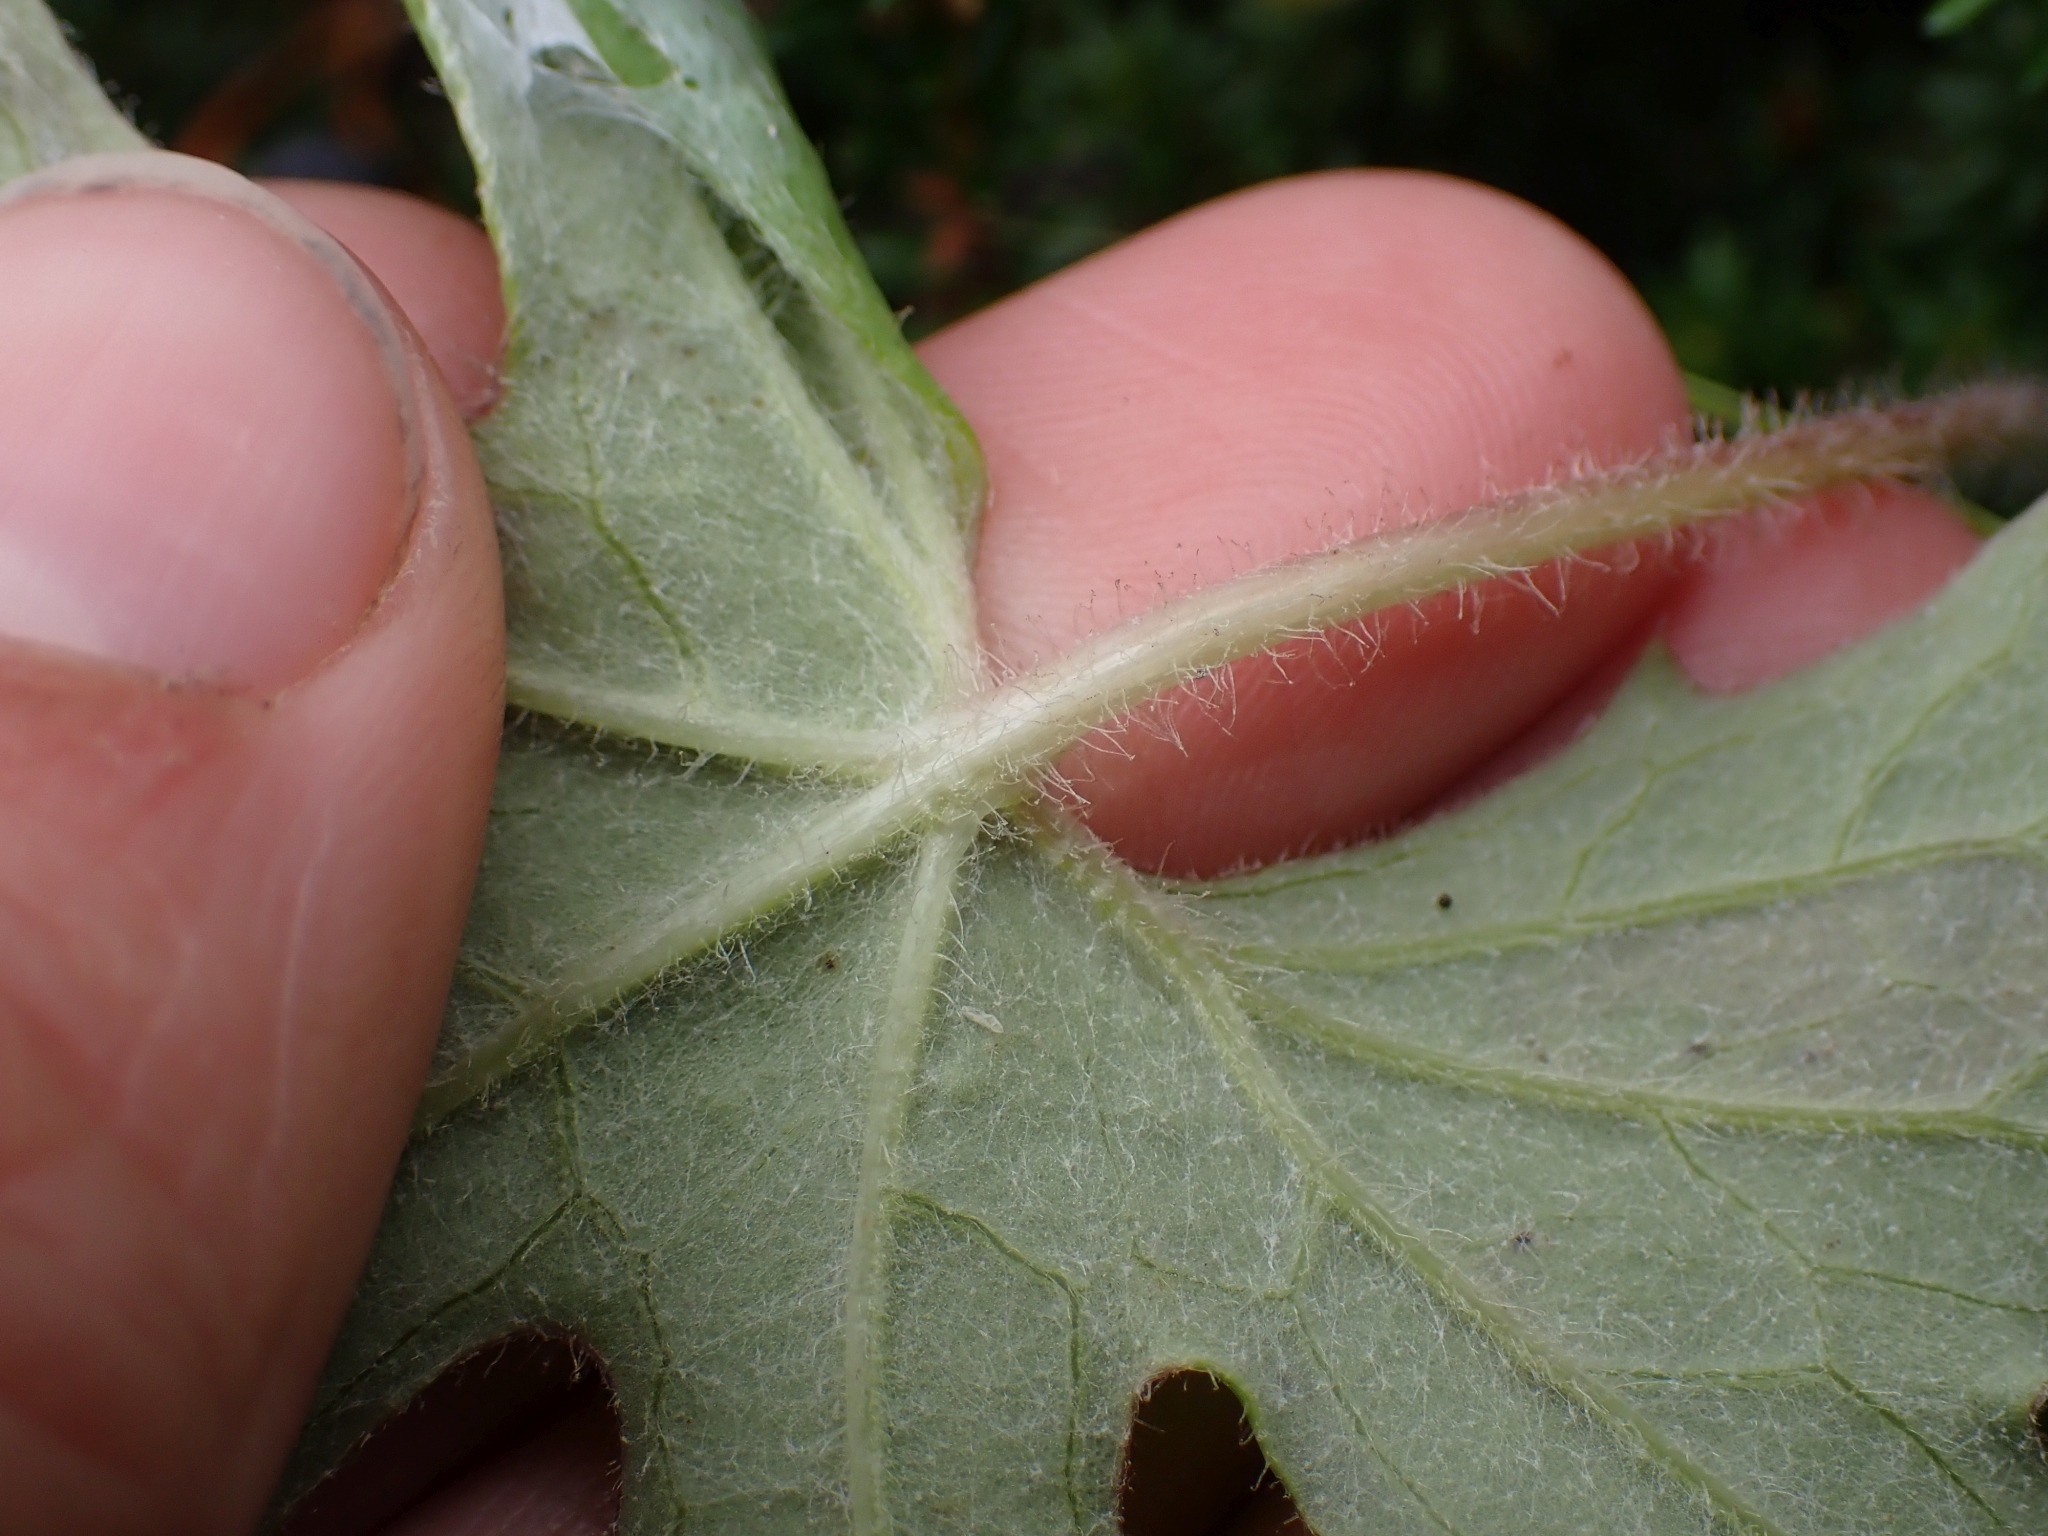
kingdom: Plantae
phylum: Tracheophyta
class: Magnoliopsida
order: Asterales
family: Asteraceae
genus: Petasites
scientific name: Petasites frigidus
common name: Arctic butterbur
